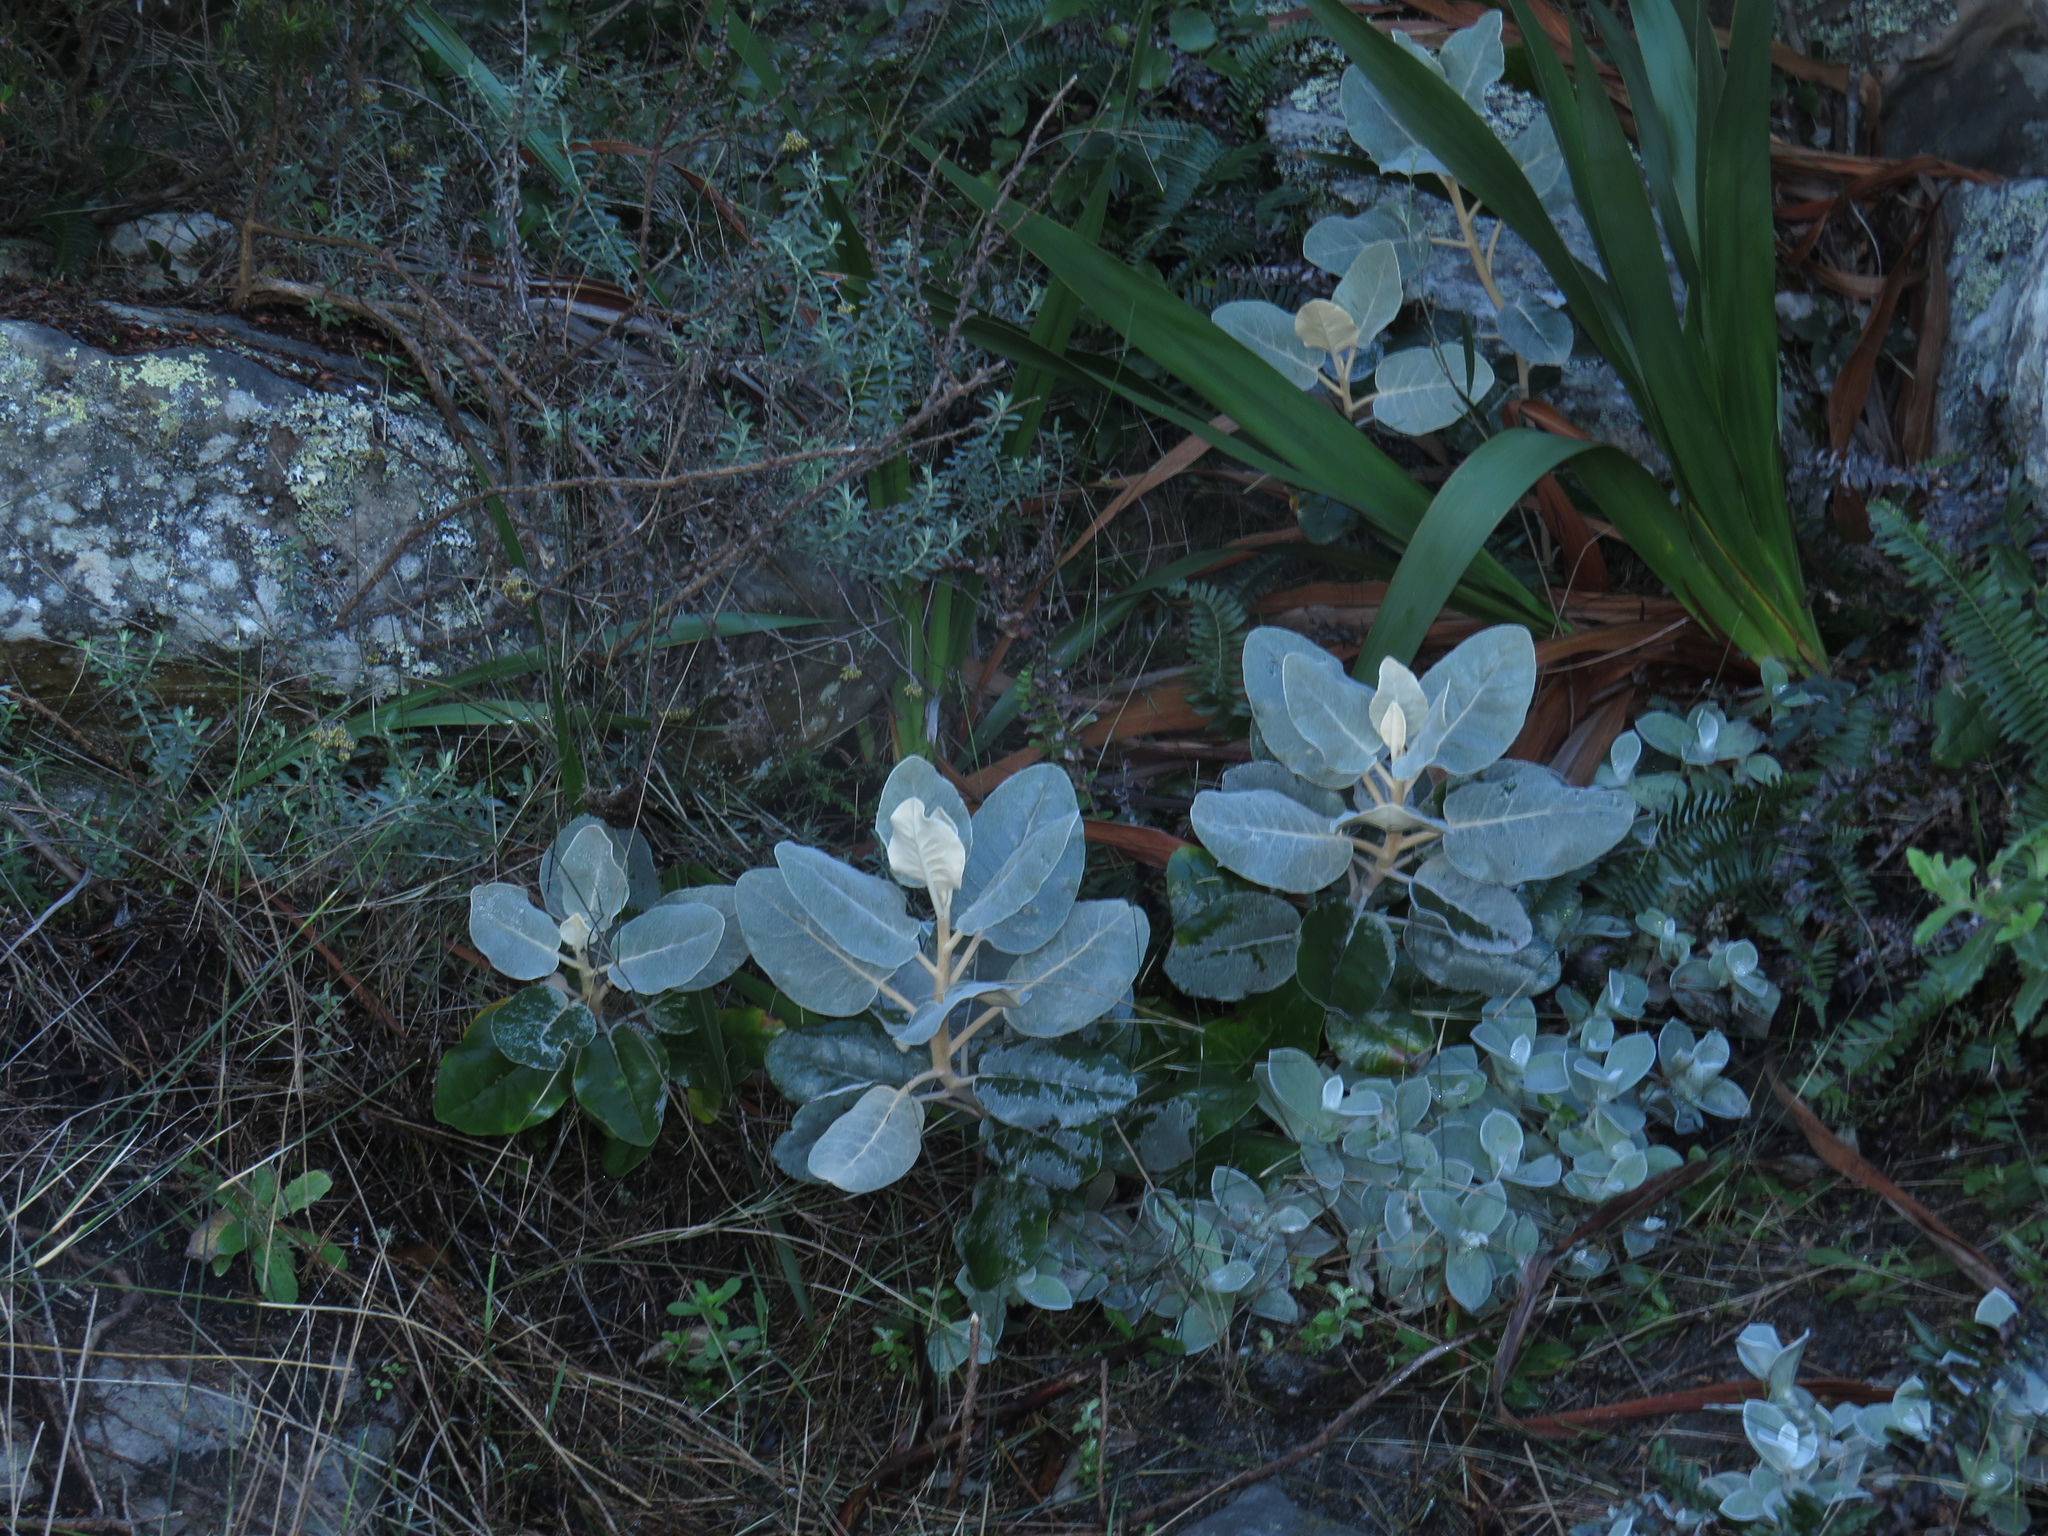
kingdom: Plantae
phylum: Tracheophyta
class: Magnoliopsida
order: Asterales
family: Asteraceae
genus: Capelio
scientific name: Capelio tabularis
